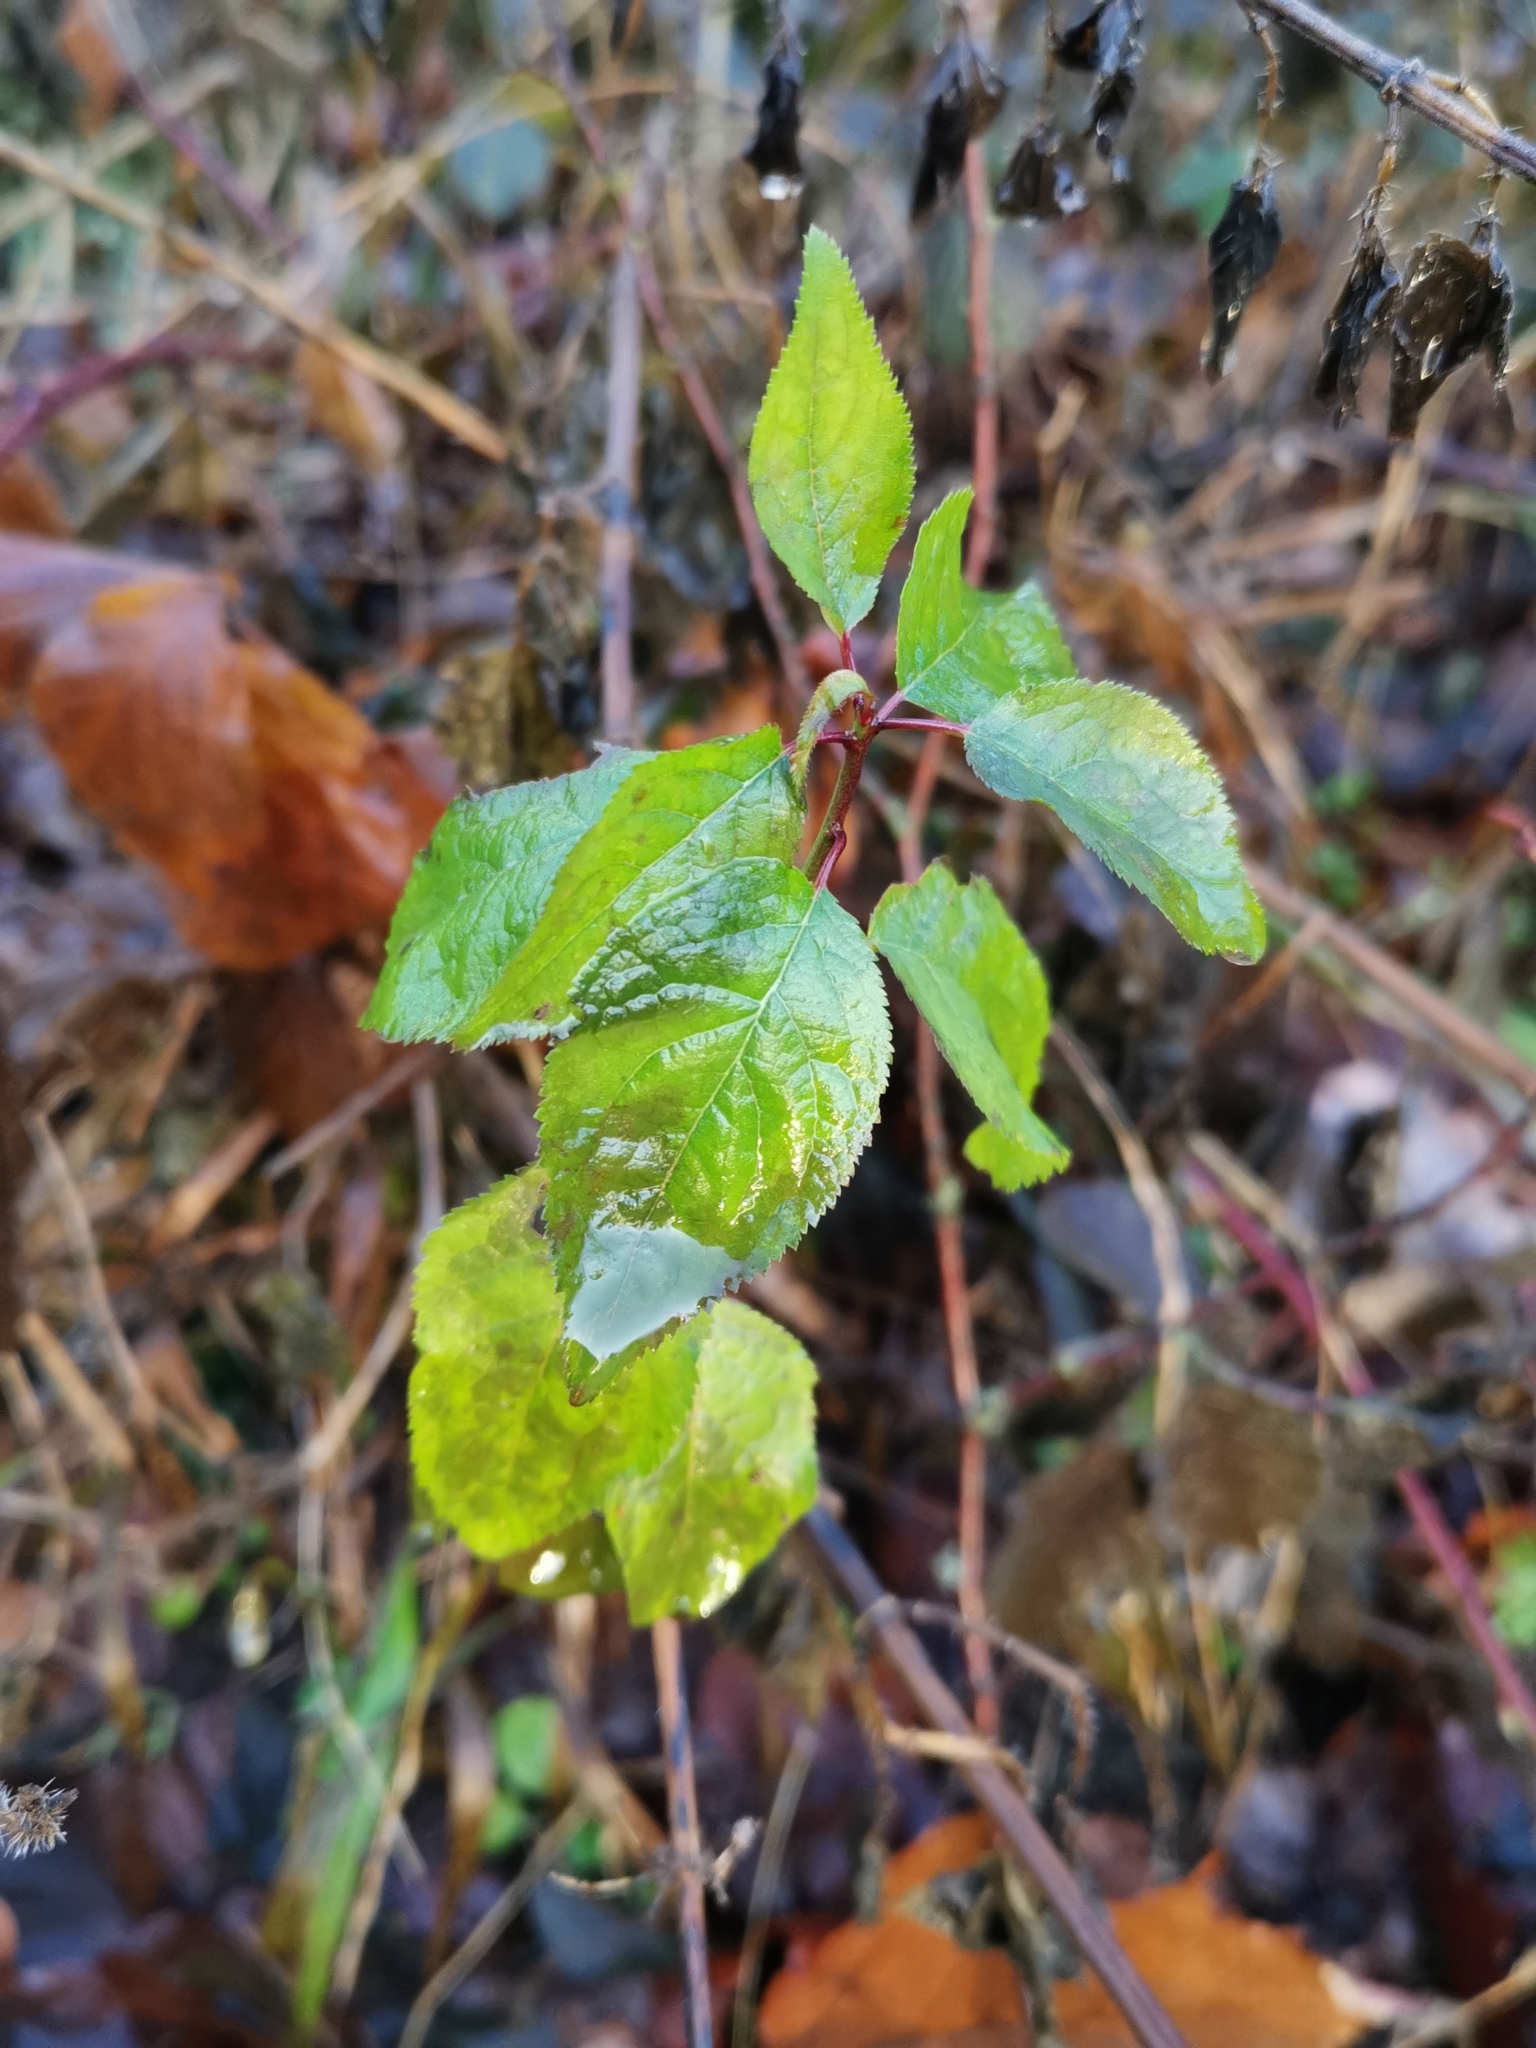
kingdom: Plantae
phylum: Tracheophyta
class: Magnoliopsida
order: Rosales
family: Rosaceae
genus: Prunus
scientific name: Prunus cerasifera
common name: Cherry plum
